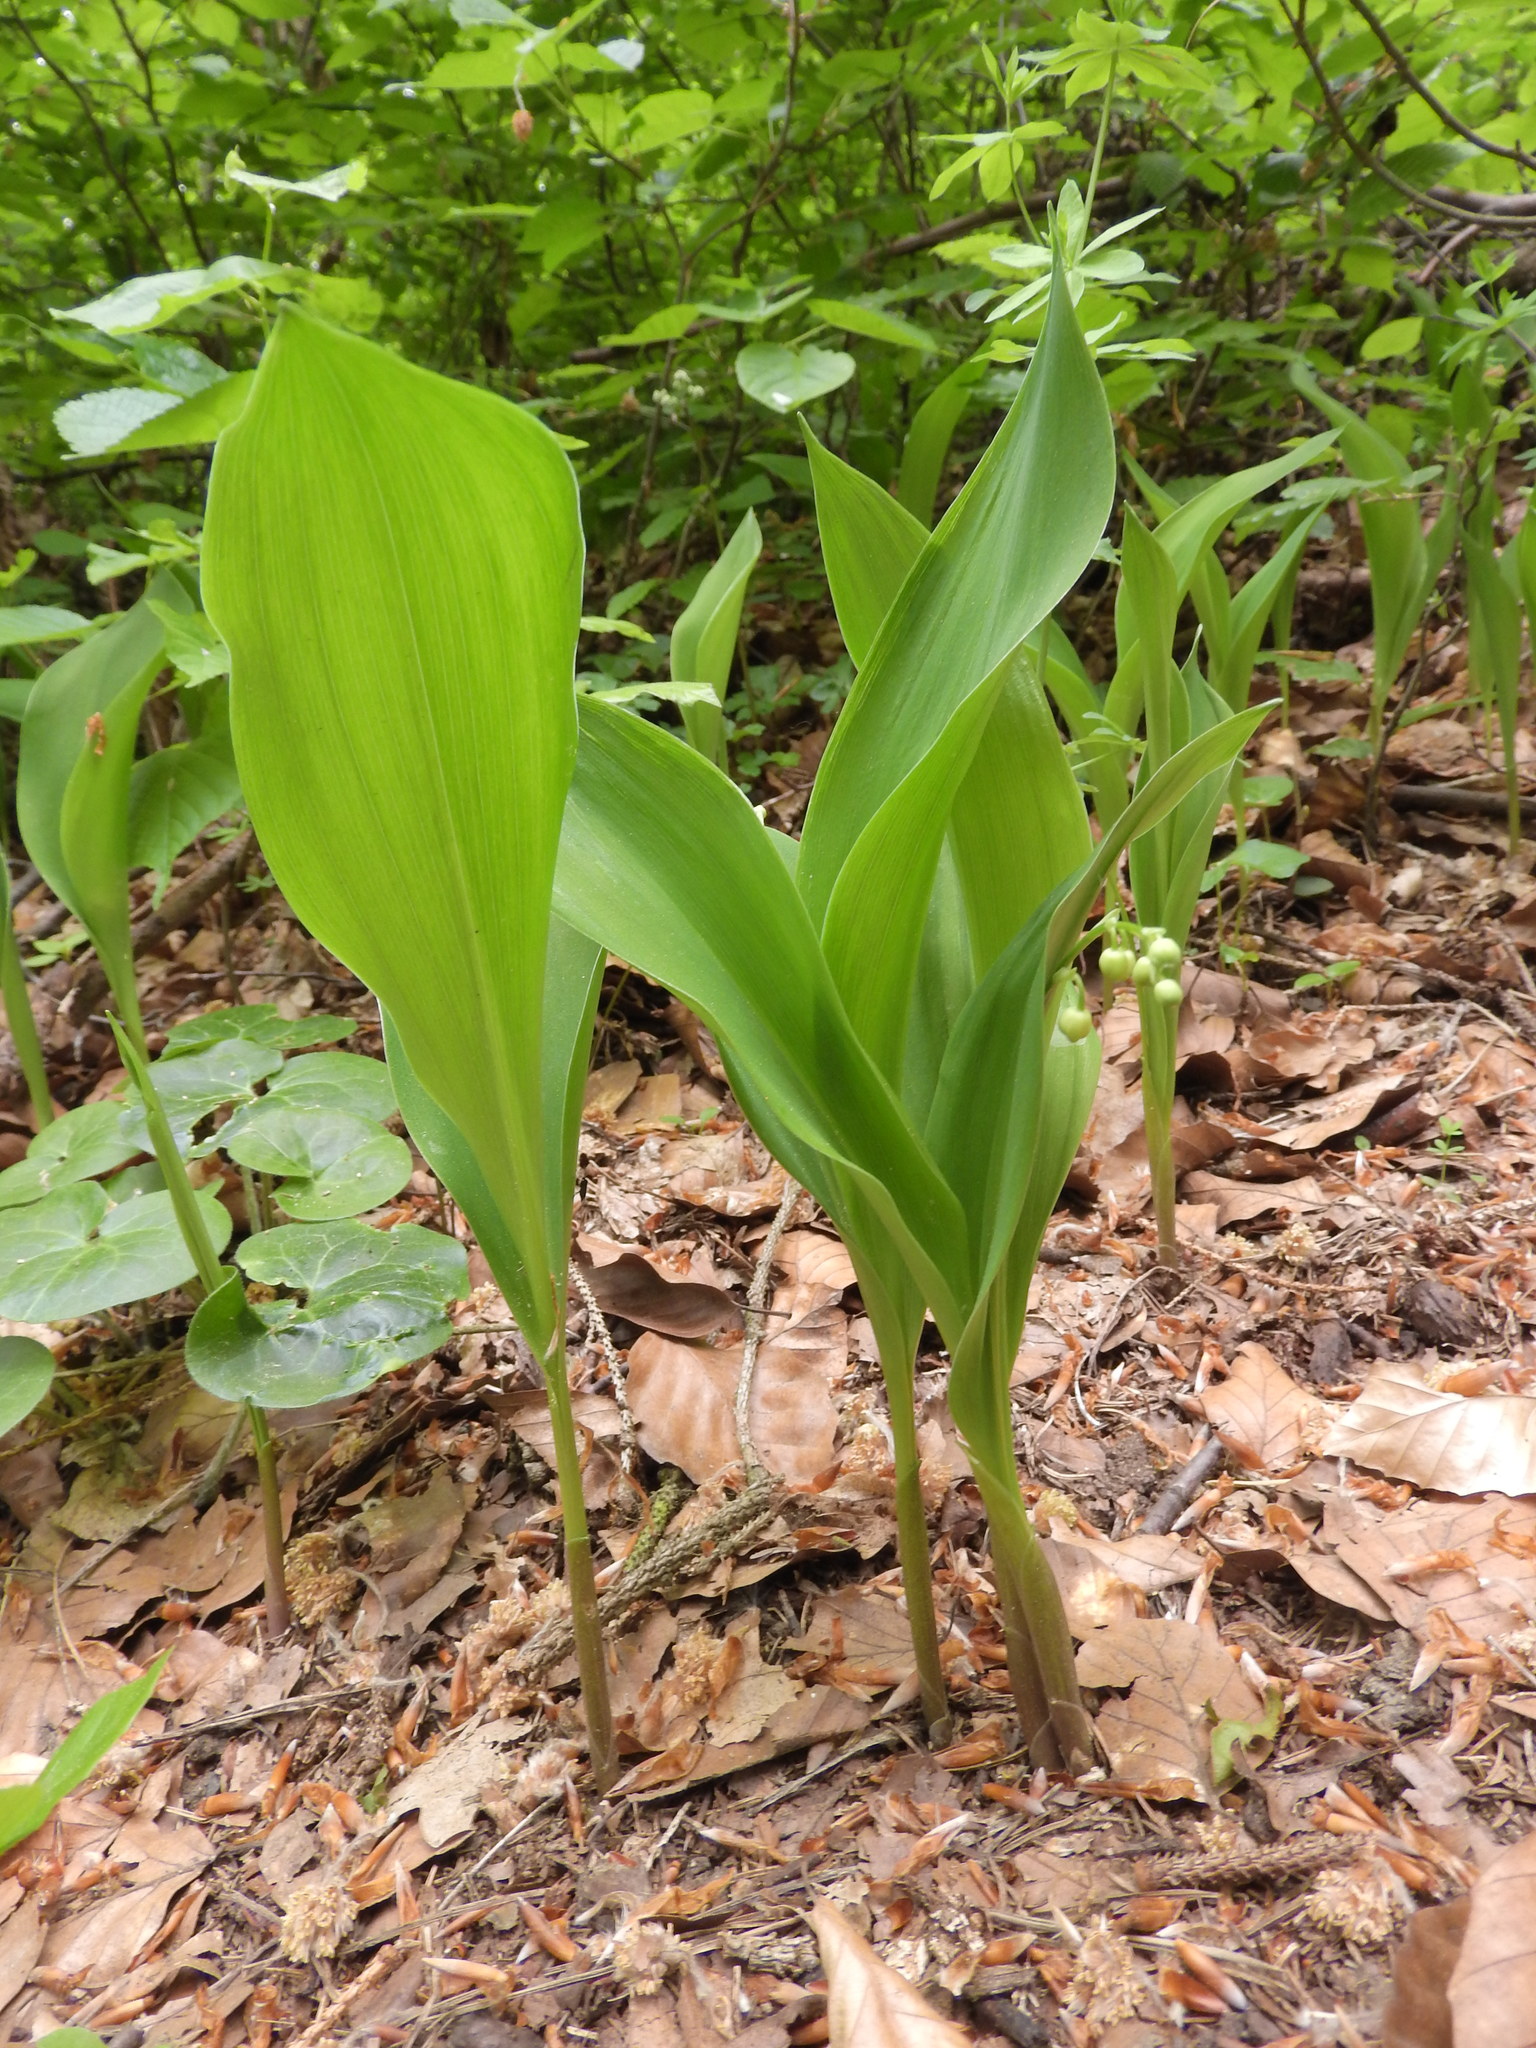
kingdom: Plantae
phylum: Tracheophyta
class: Liliopsida
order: Asparagales
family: Asparagaceae
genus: Convallaria
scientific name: Convallaria majalis
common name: Lily-of-the-valley
